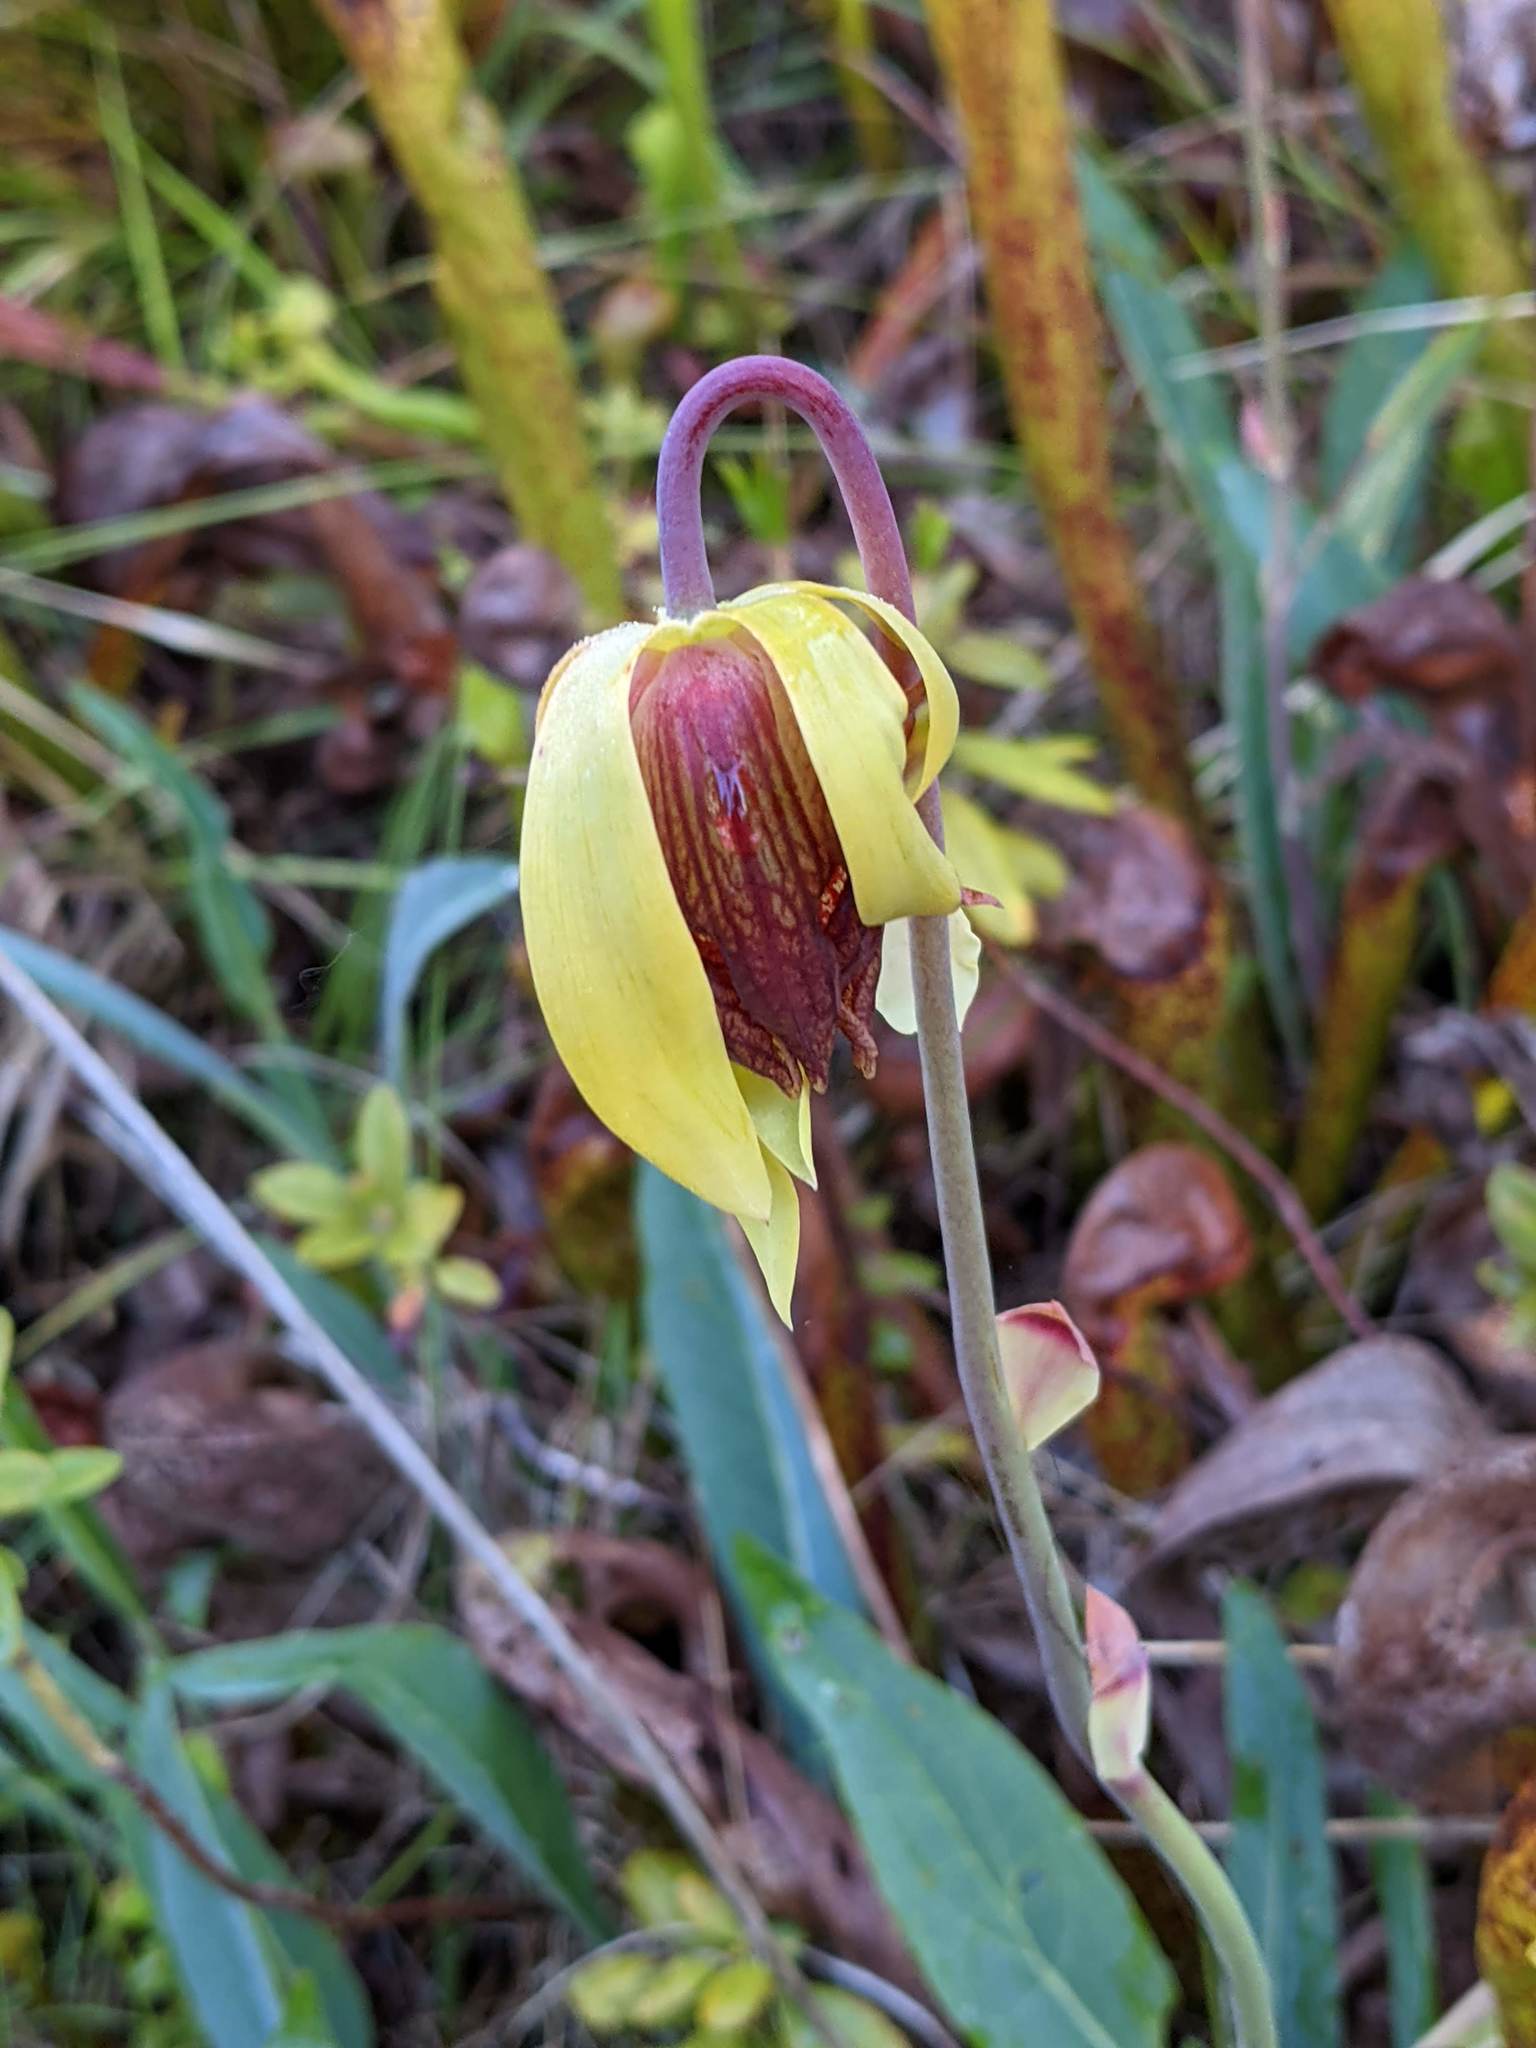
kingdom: Plantae
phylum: Tracheophyta
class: Magnoliopsida
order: Ericales
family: Sarraceniaceae
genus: Darlingtonia
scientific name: Darlingtonia californica
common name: California pitcher plant
